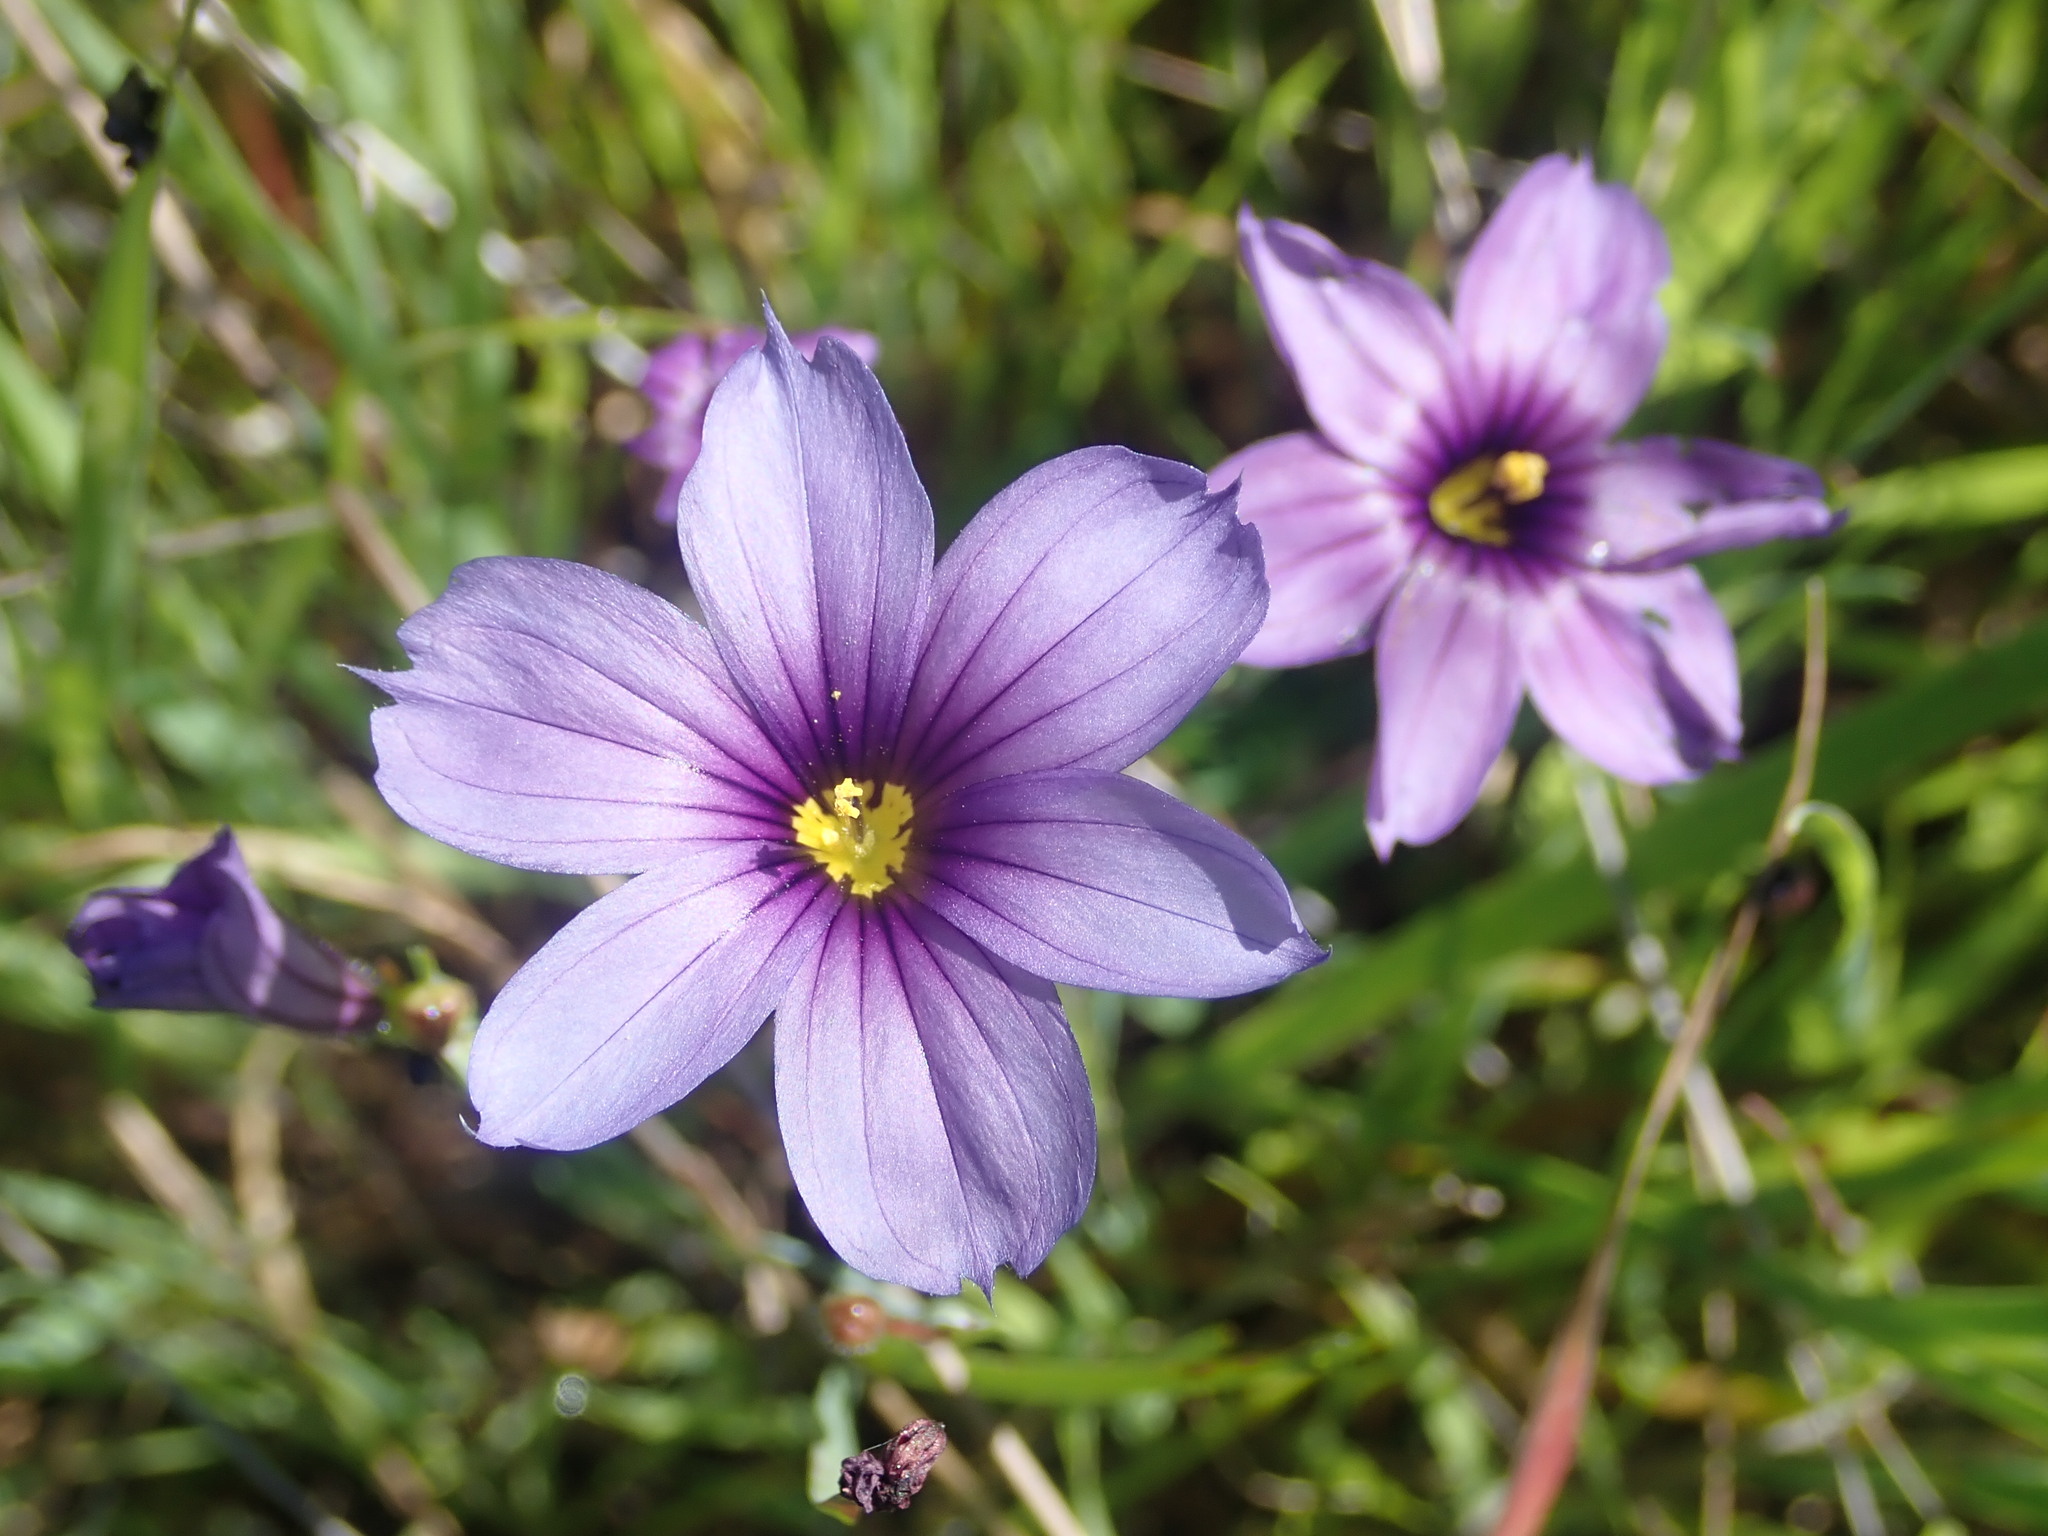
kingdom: Plantae
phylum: Tracheophyta
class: Liliopsida
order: Asparagales
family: Iridaceae
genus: Sisyrinchium
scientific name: Sisyrinchium bellum
